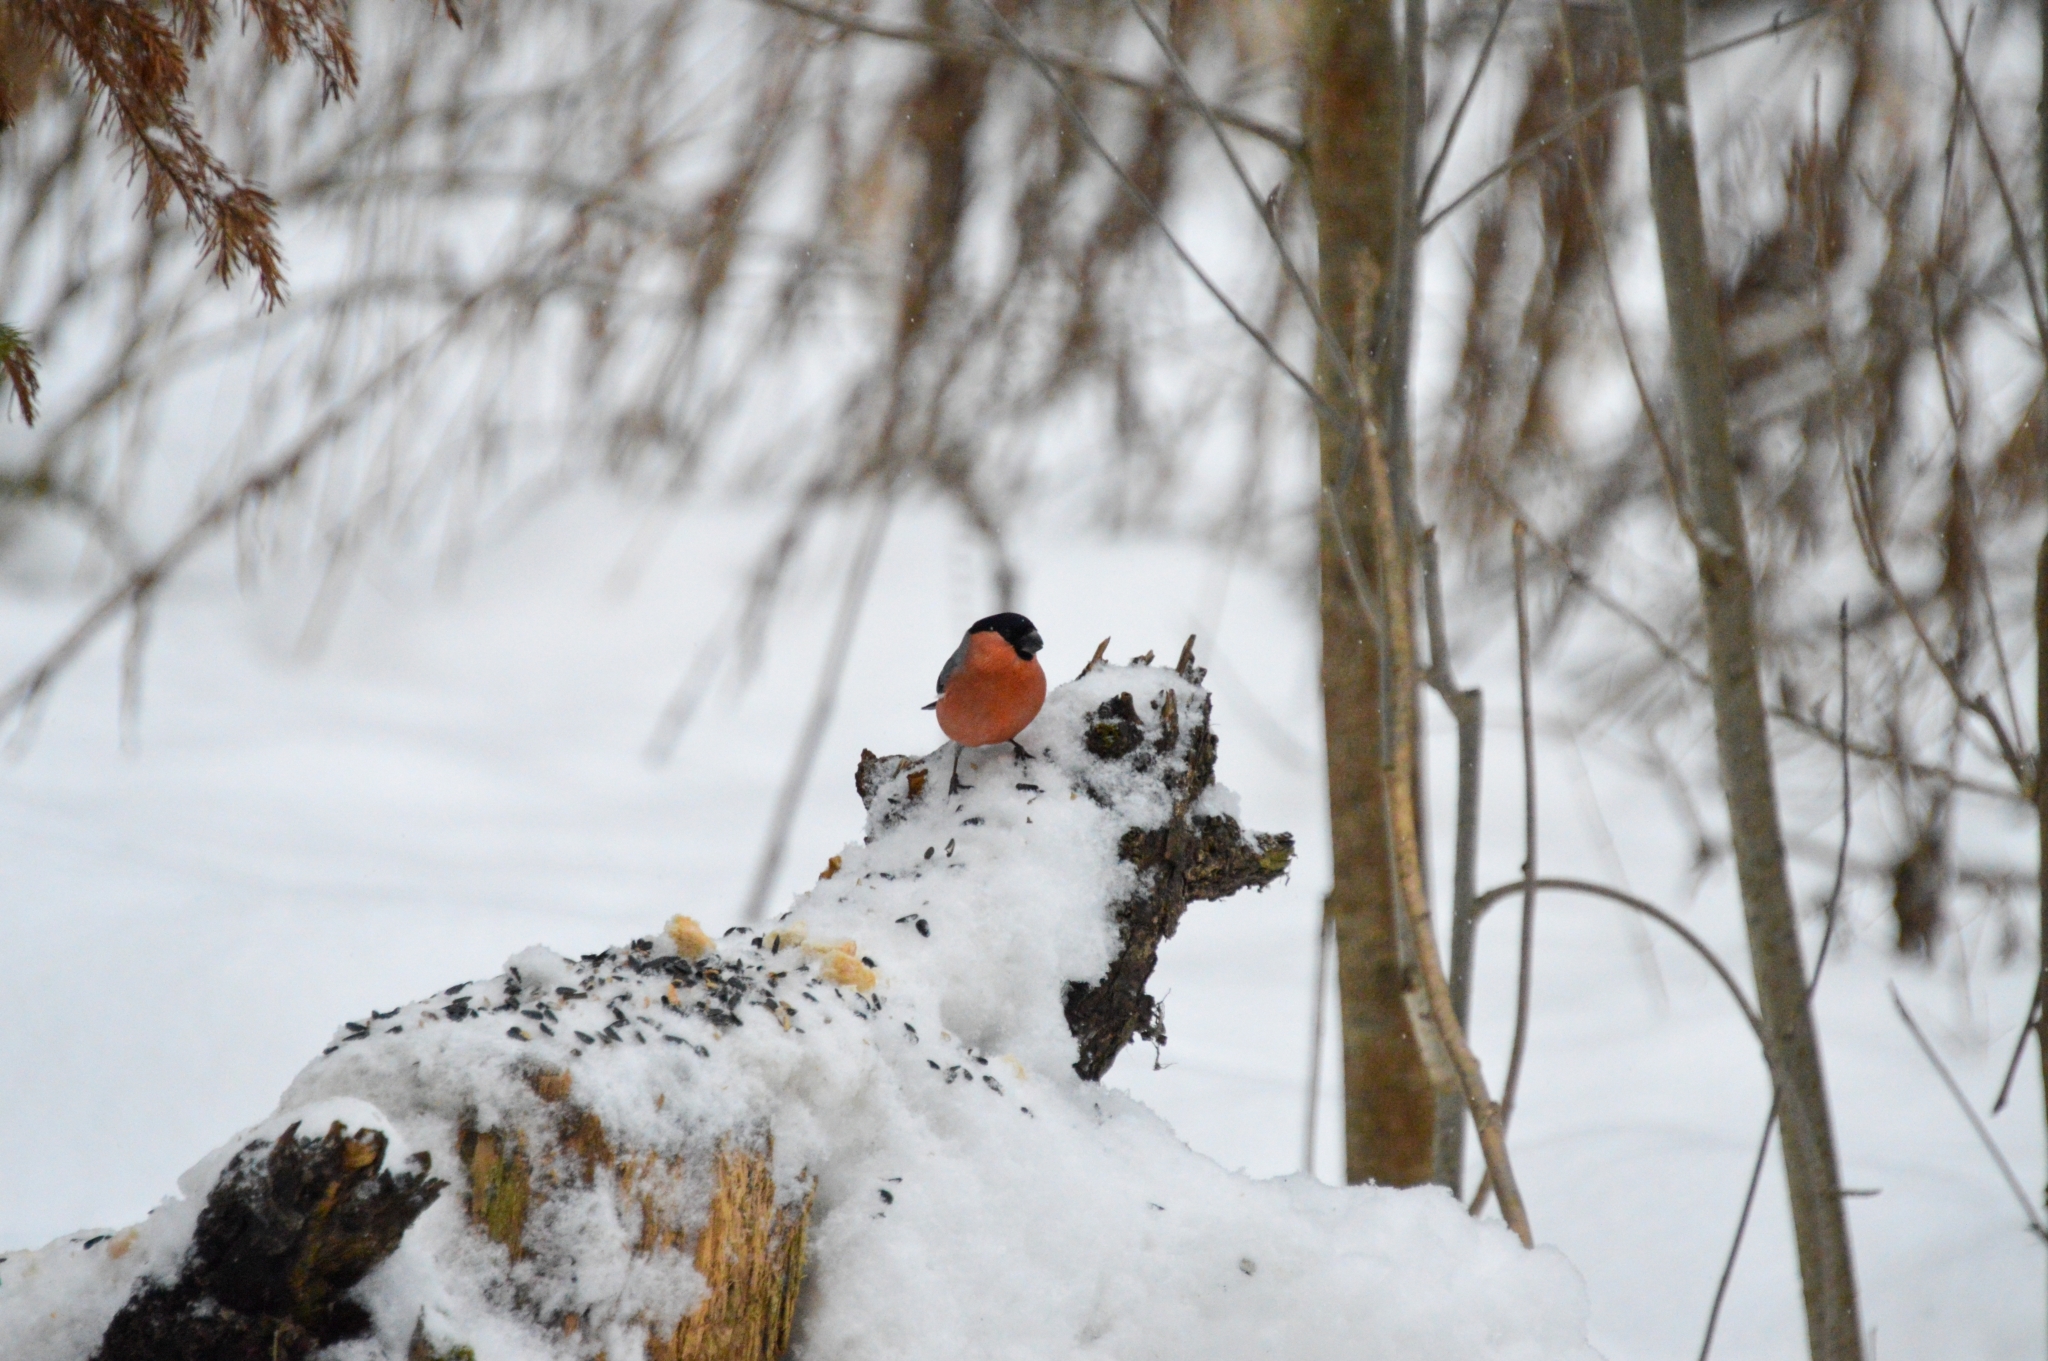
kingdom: Animalia
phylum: Chordata
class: Aves
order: Passeriformes
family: Fringillidae
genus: Pyrrhula
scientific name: Pyrrhula pyrrhula
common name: Eurasian bullfinch
